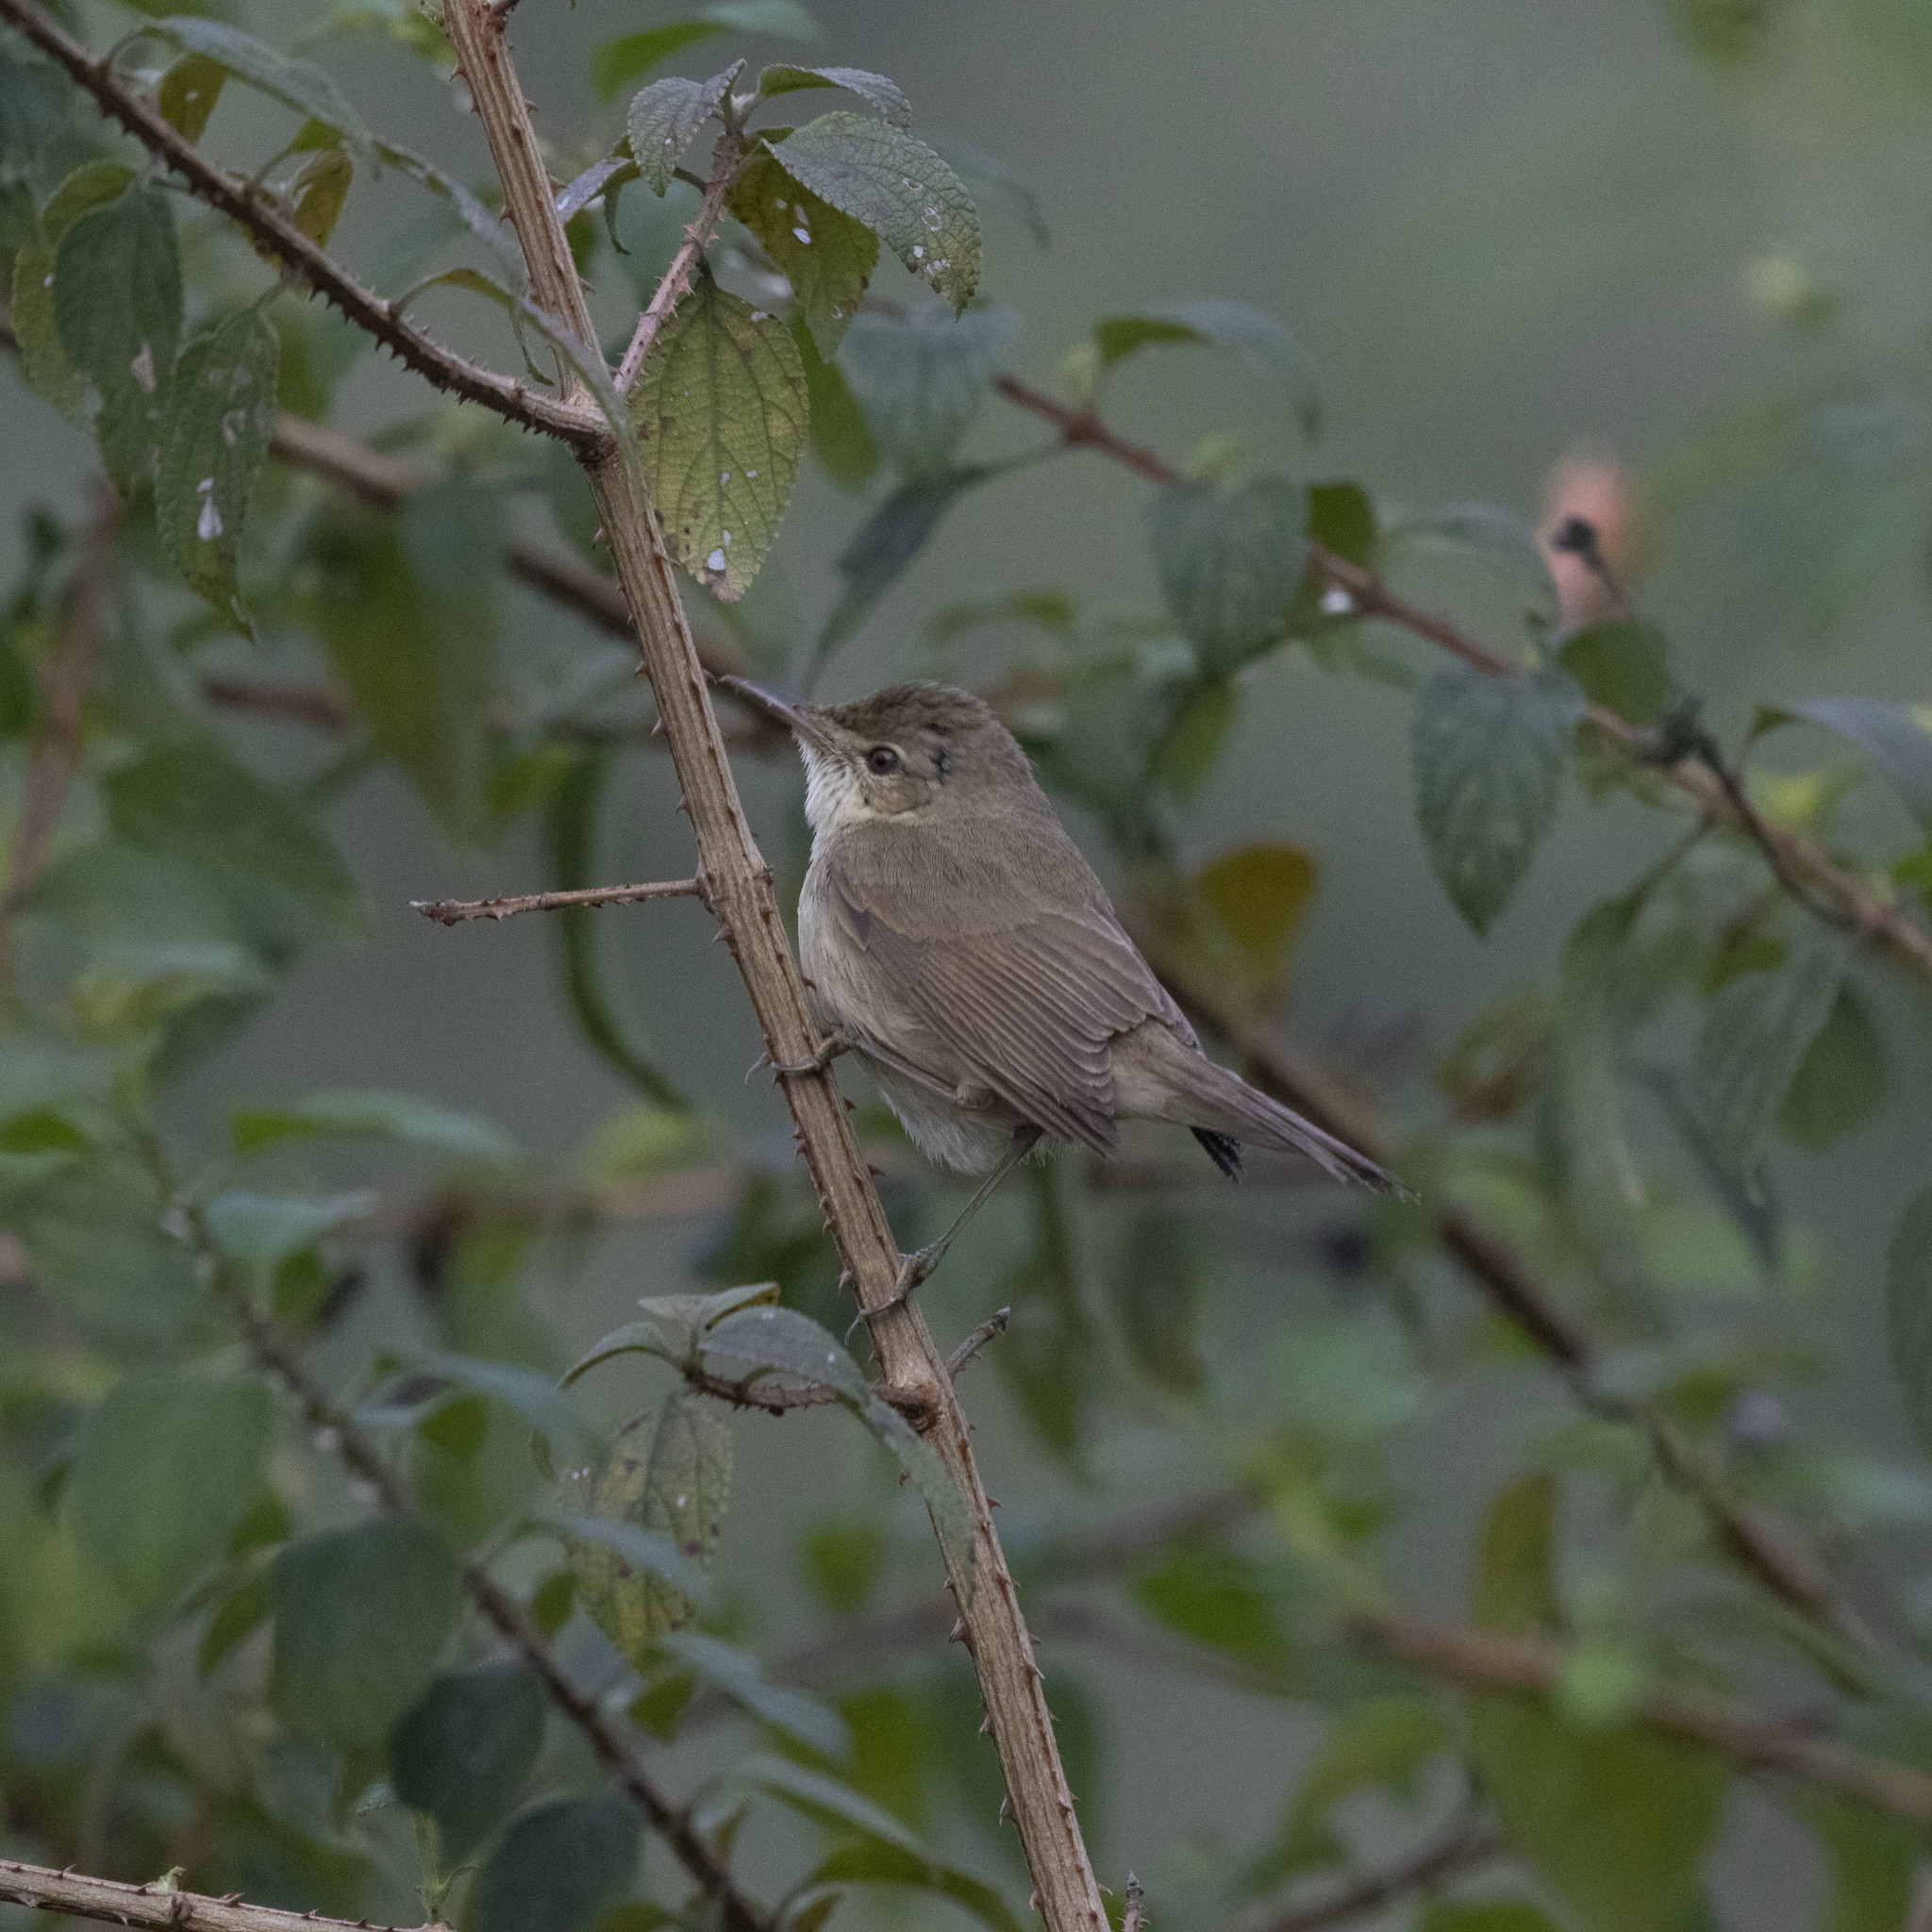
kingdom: Animalia
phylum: Chordata
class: Aves
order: Passeriformes
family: Acrocephalidae
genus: Acrocephalus
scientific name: Acrocephalus dumetorum
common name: Blyth's reed warbler
